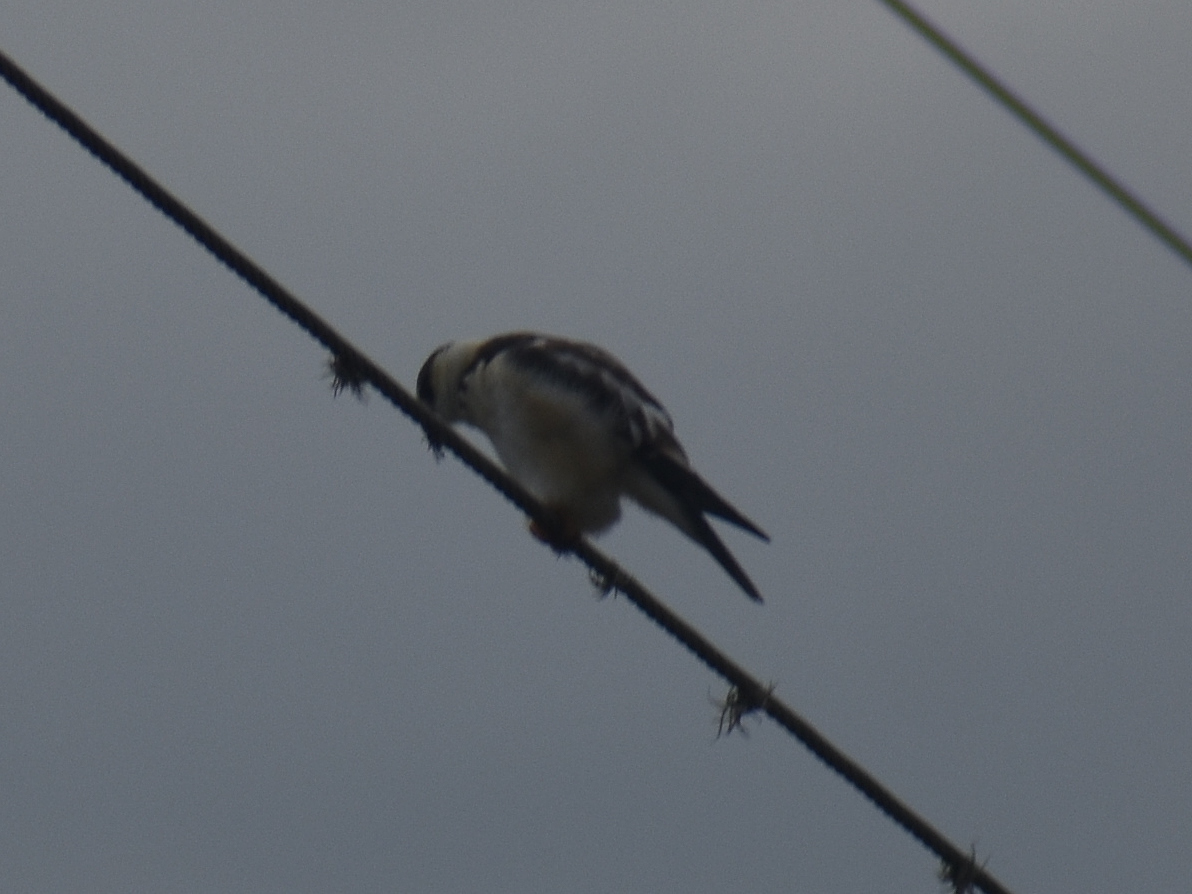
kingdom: Animalia
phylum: Chordata
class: Aves
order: Accipitriformes
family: Accipitridae
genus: Gampsonyx
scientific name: Gampsonyx swainsonii
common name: Pearl kite
